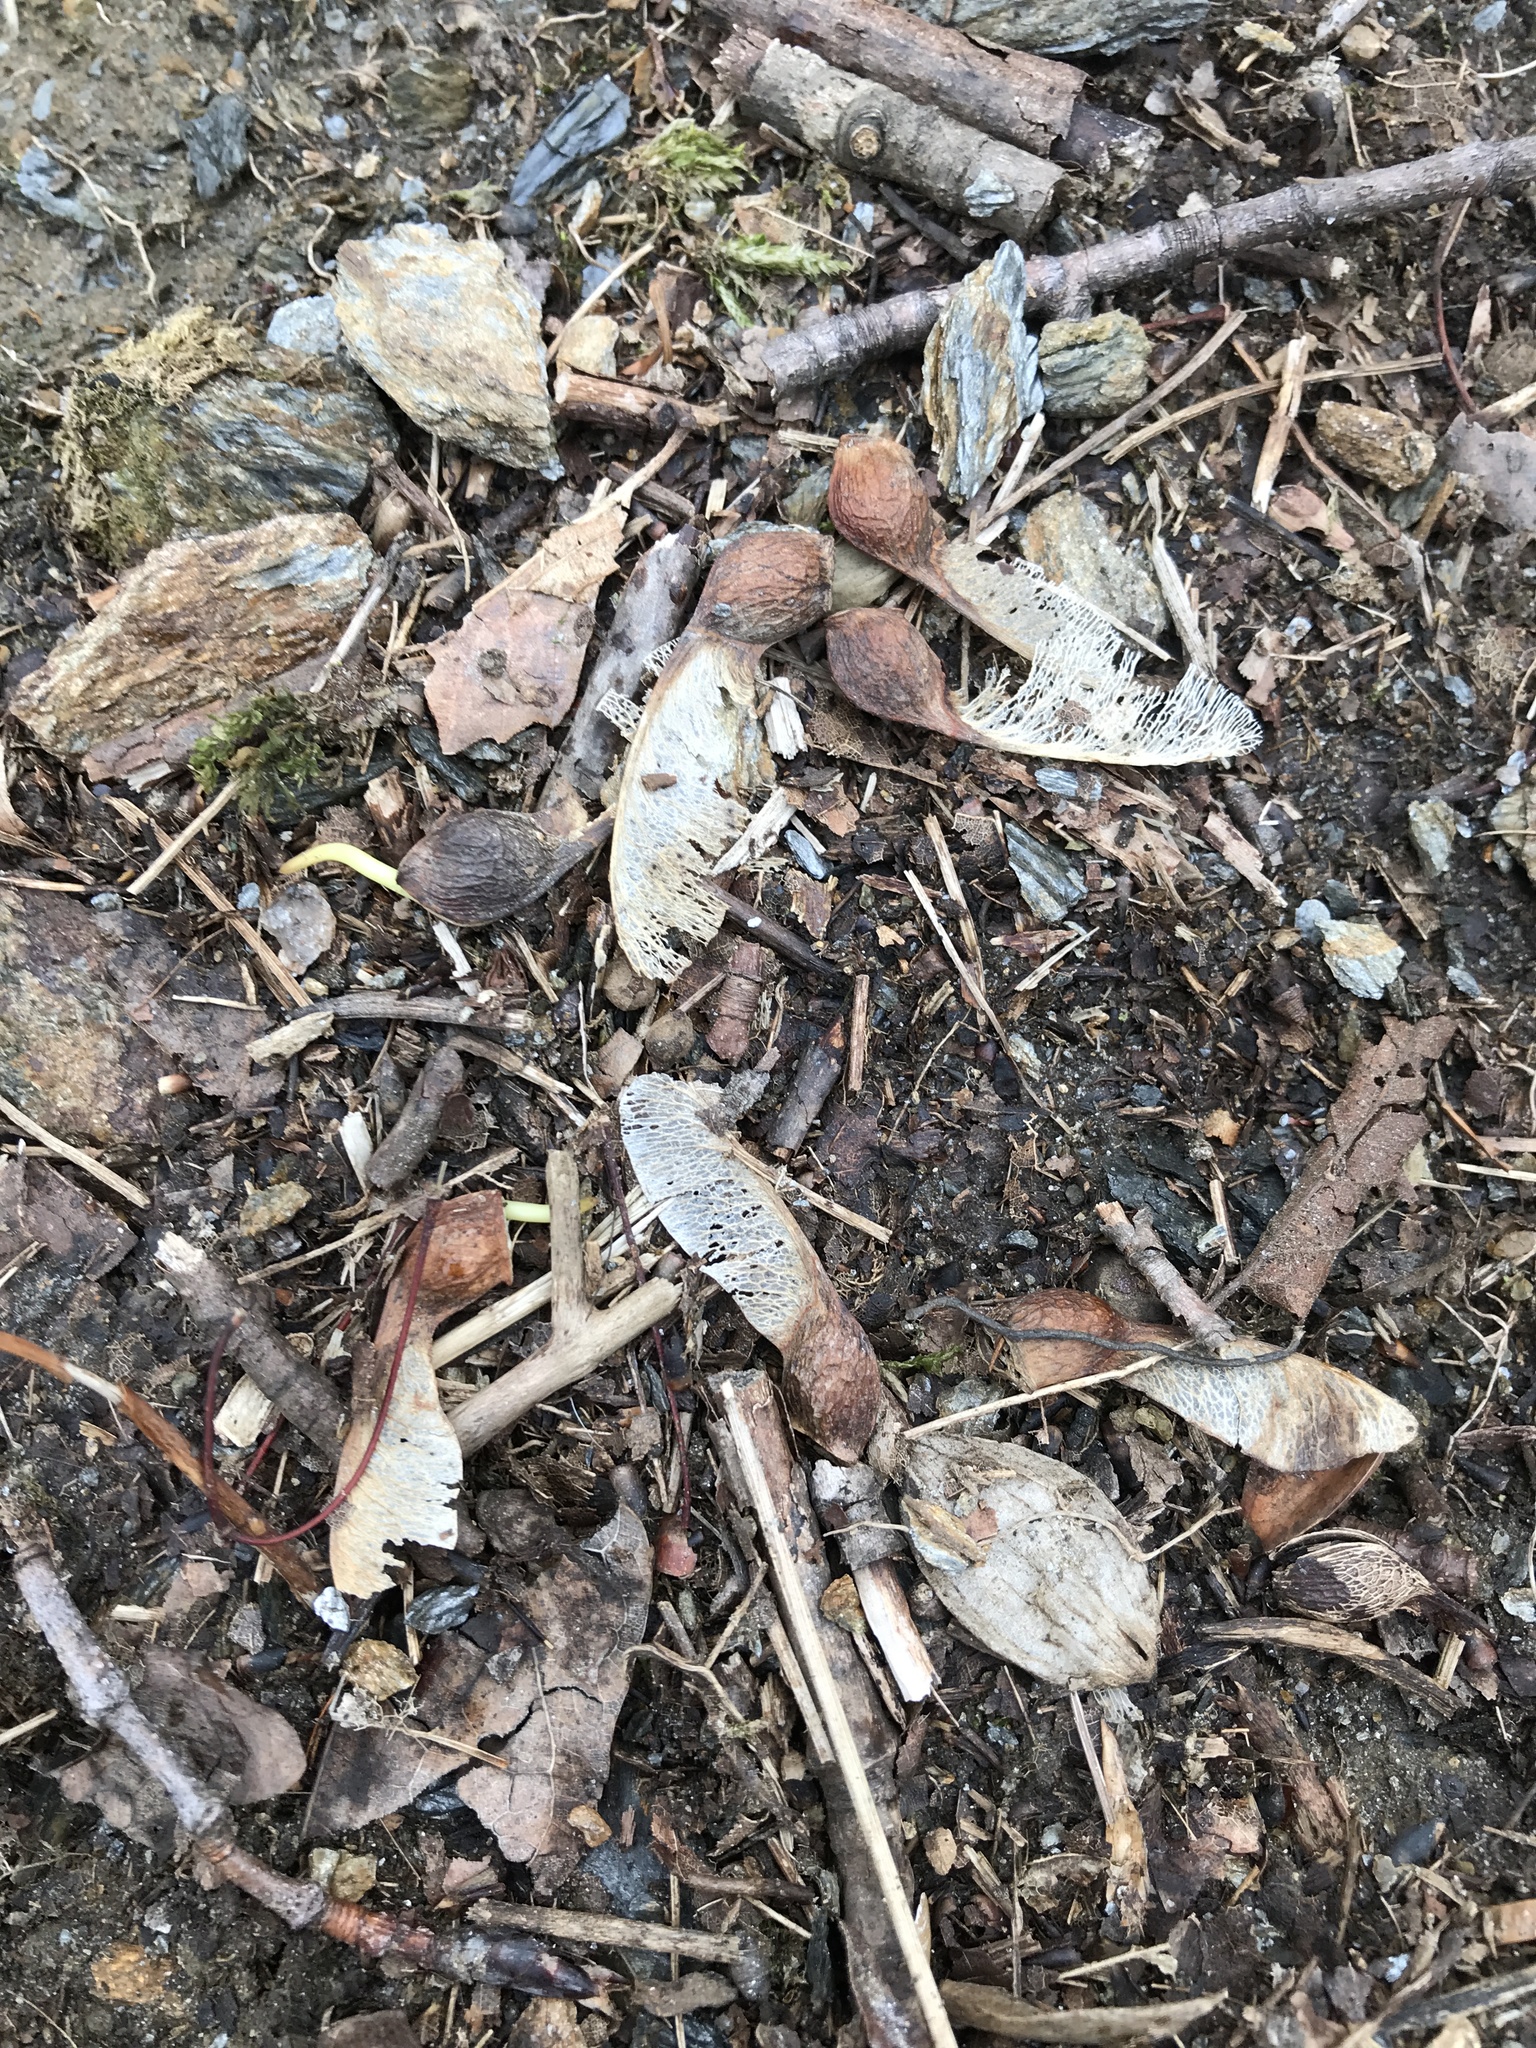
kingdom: Plantae
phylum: Tracheophyta
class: Magnoliopsida
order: Sapindales
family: Sapindaceae
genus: Acer
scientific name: Acer saccharum
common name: Sugar maple
